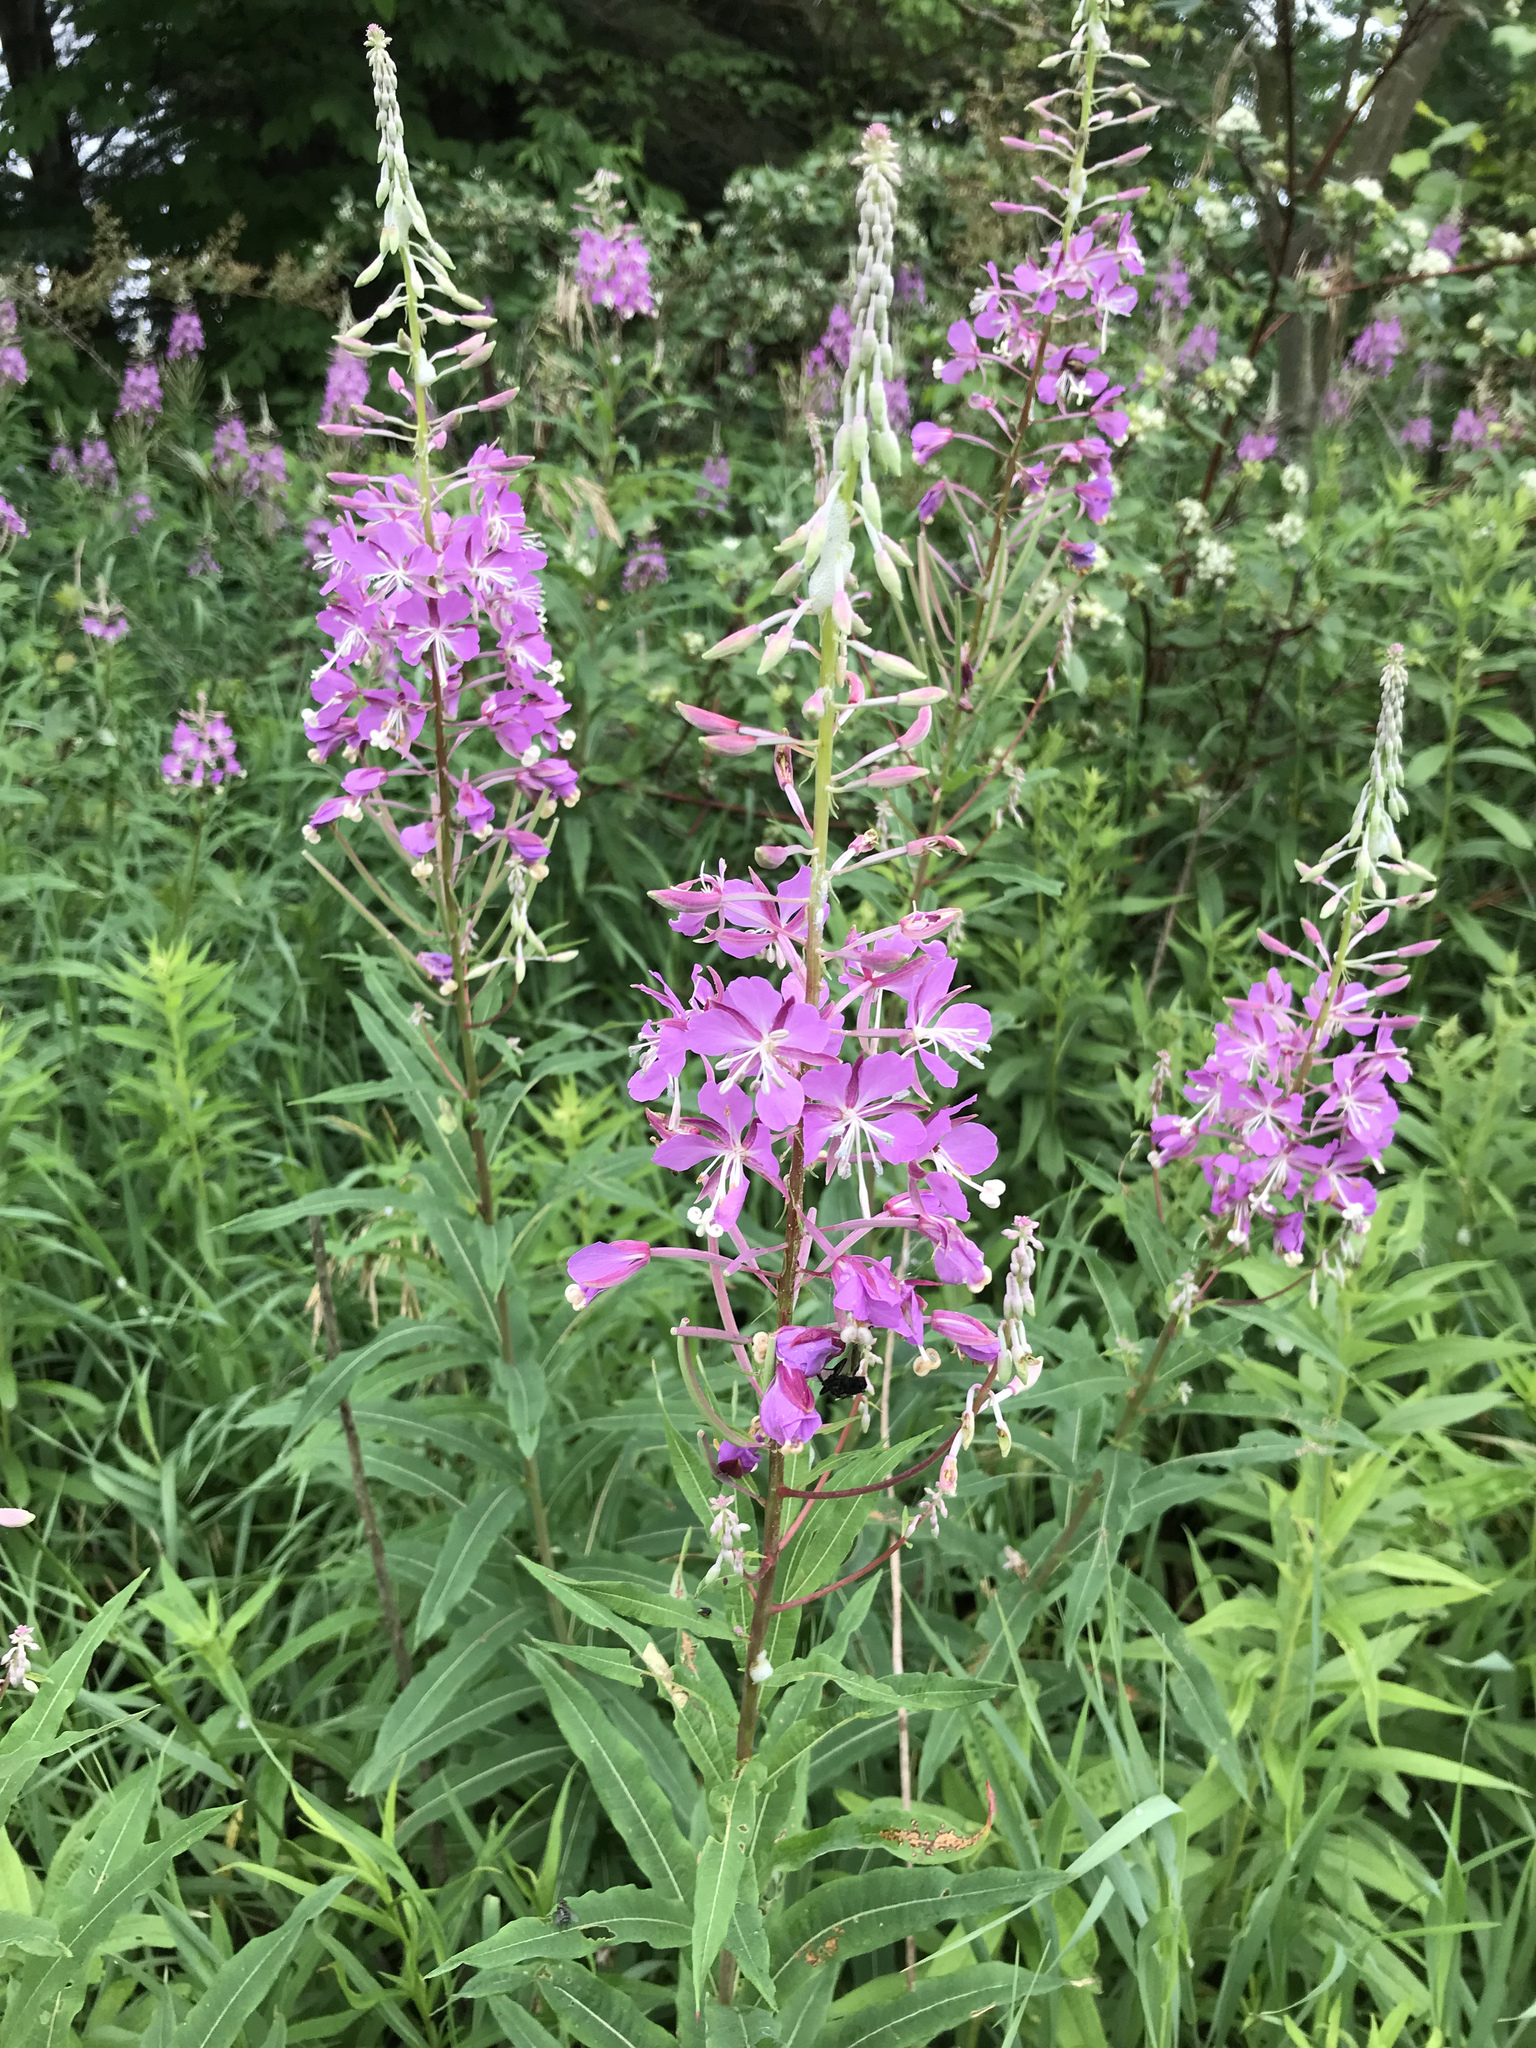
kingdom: Plantae
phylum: Tracheophyta
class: Magnoliopsida
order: Myrtales
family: Onagraceae
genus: Chamaenerion
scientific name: Chamaenerion angustifolium
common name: Fireweed
